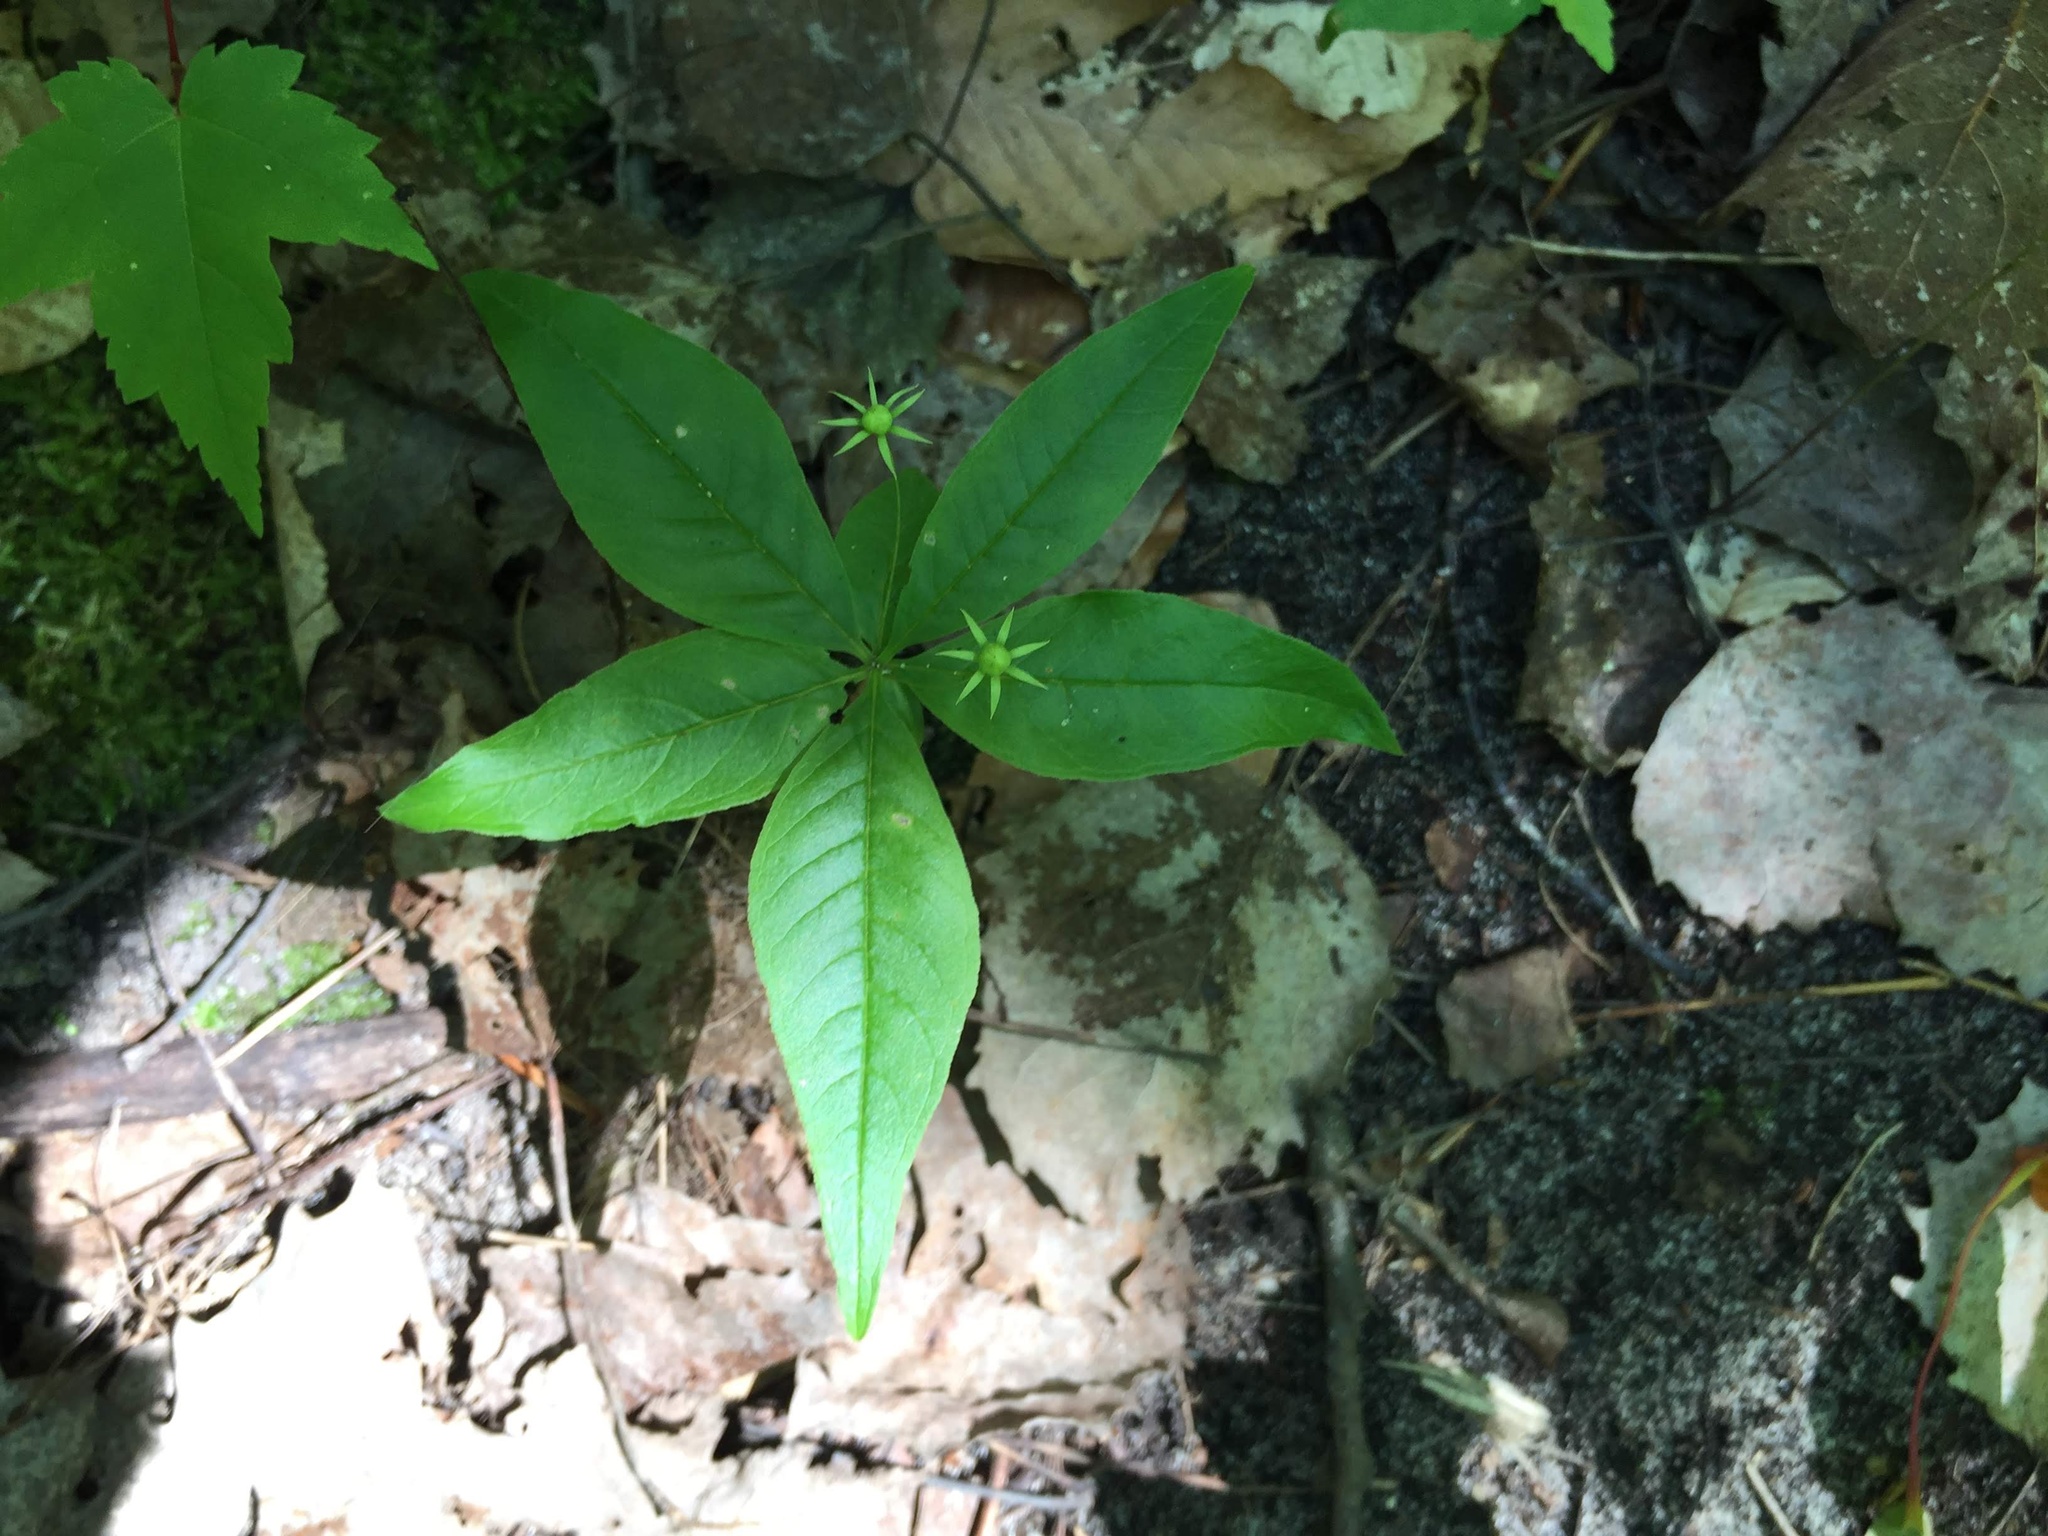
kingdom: Plantae
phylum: Tracheophyta
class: Magnoliopsida
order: Ericales
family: Primulaceae
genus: Lysimachia
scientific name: Lysimachia borealis
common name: American starflower
